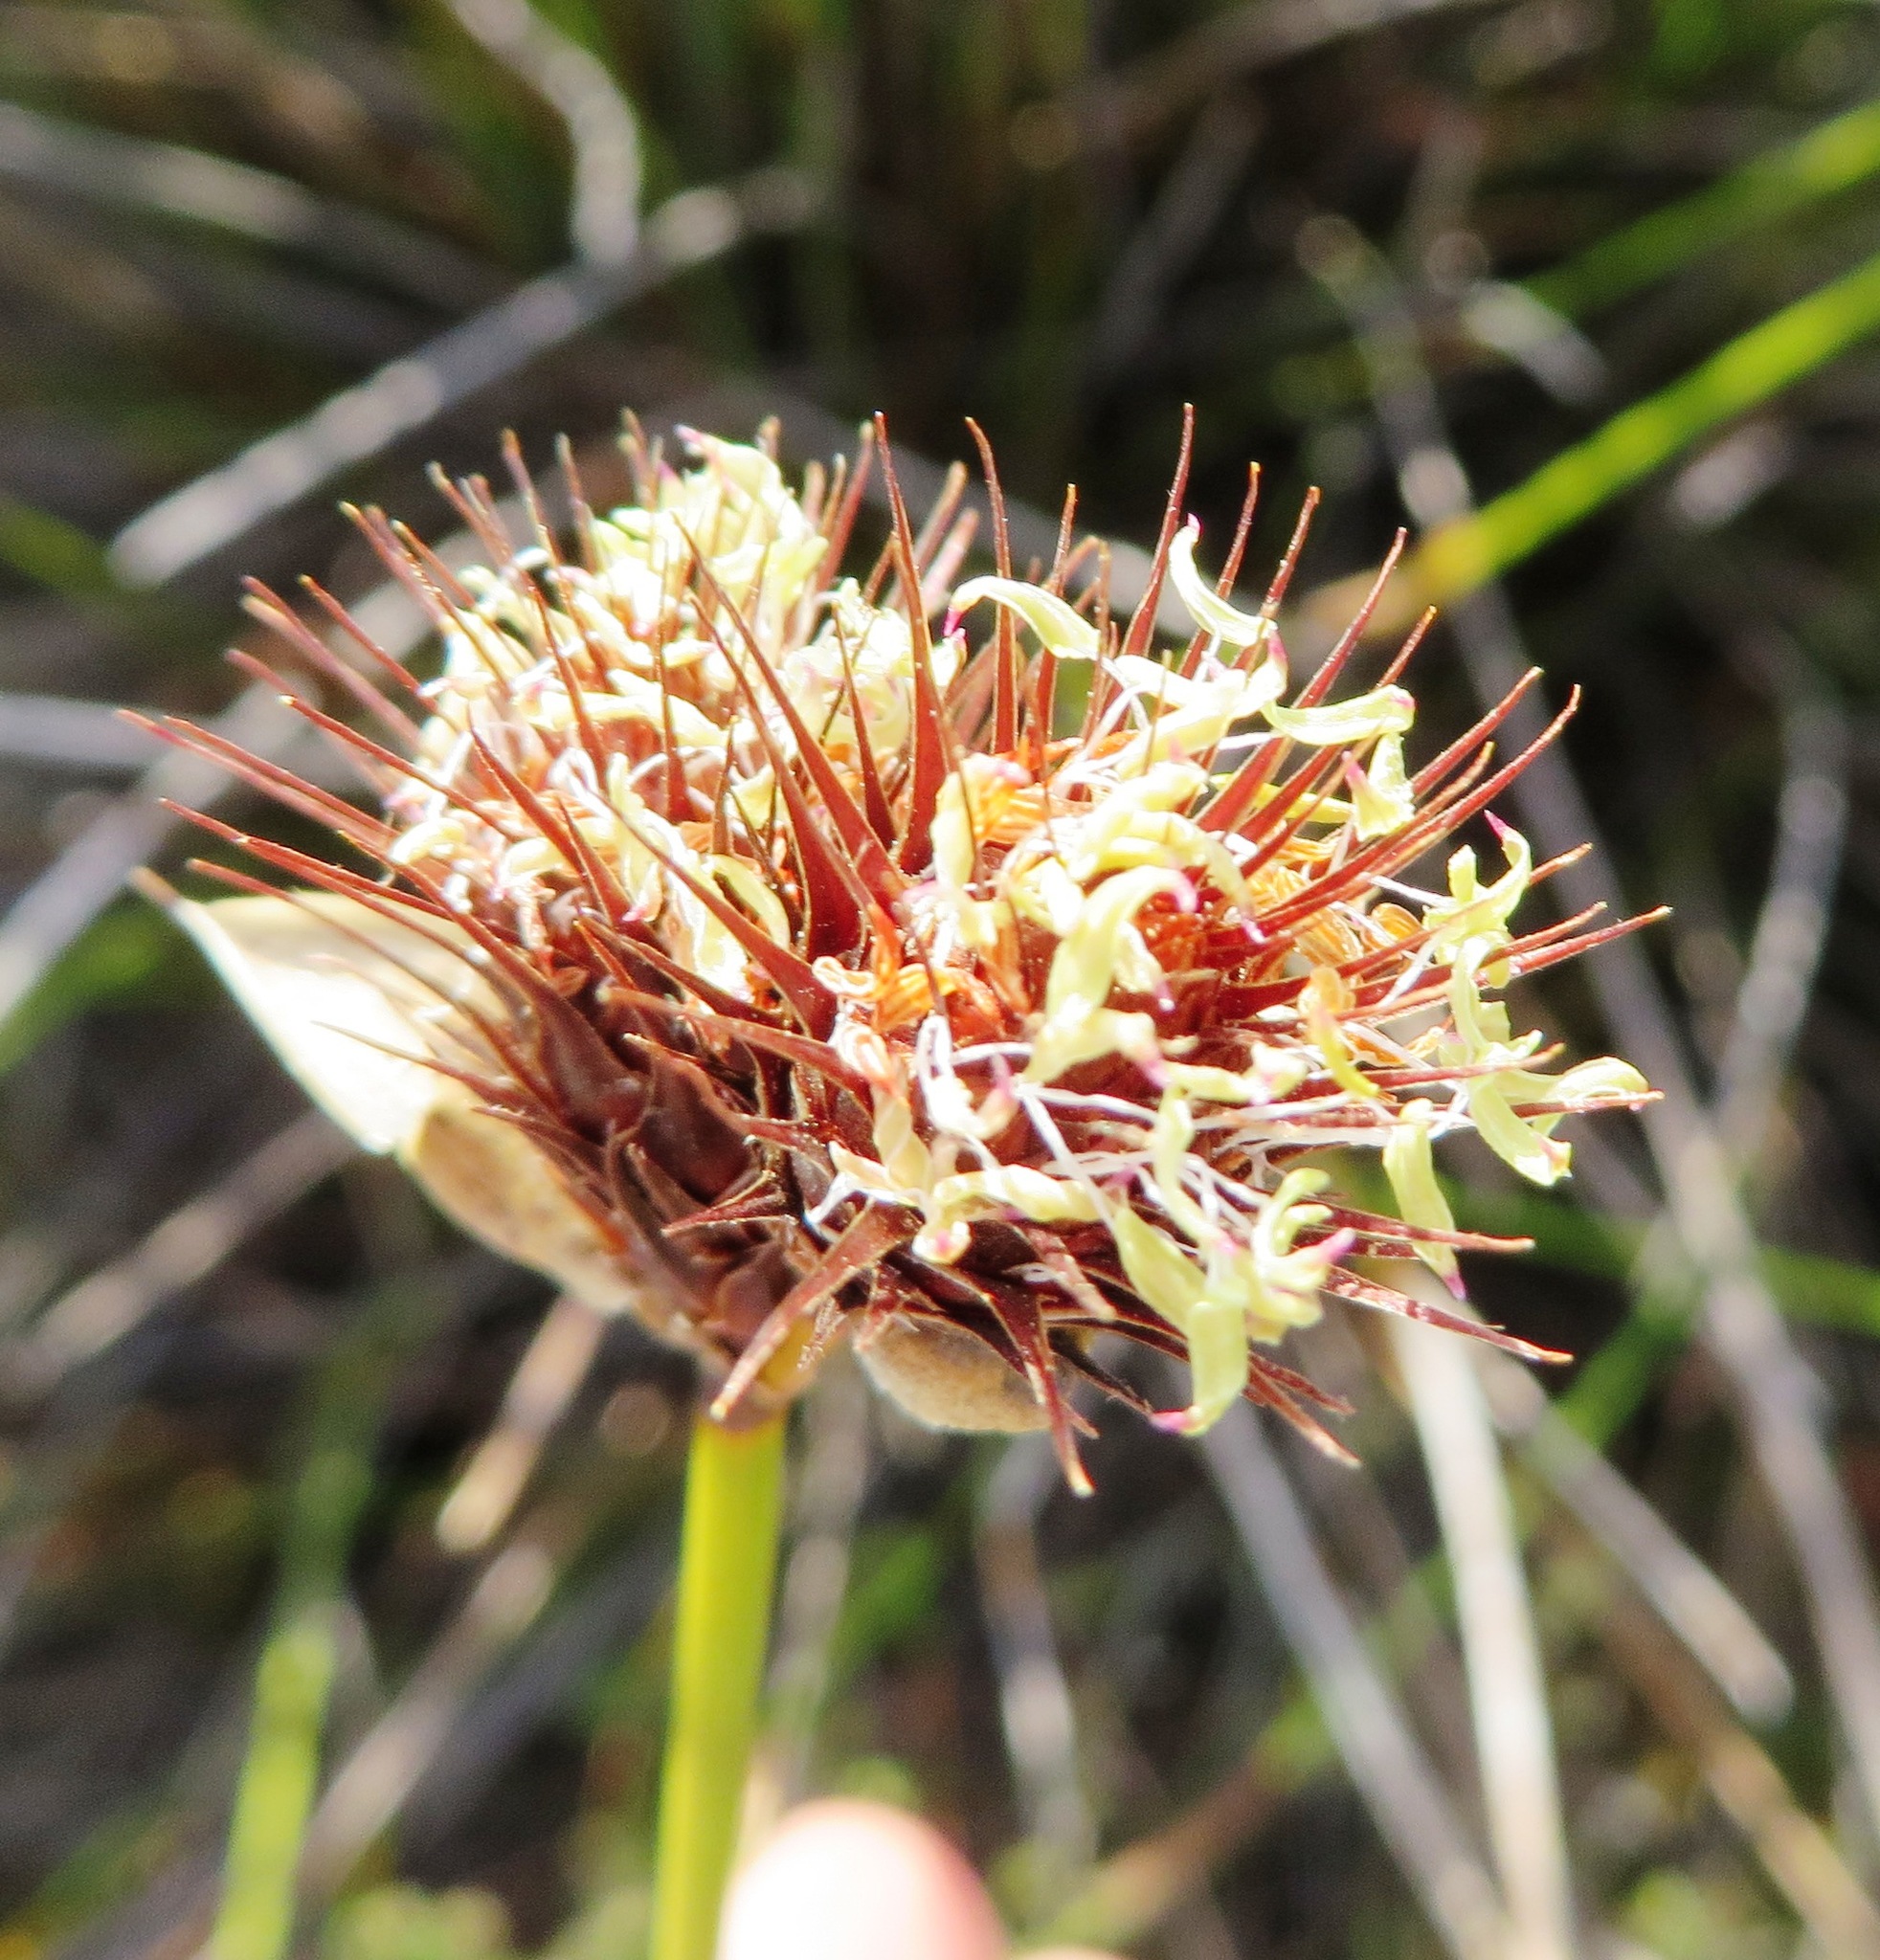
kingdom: Plantae
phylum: Tracheophyta
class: Liliopsida
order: Poales
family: Restionaceae
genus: Hypodiscus
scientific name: Hypodiscus aristatus
